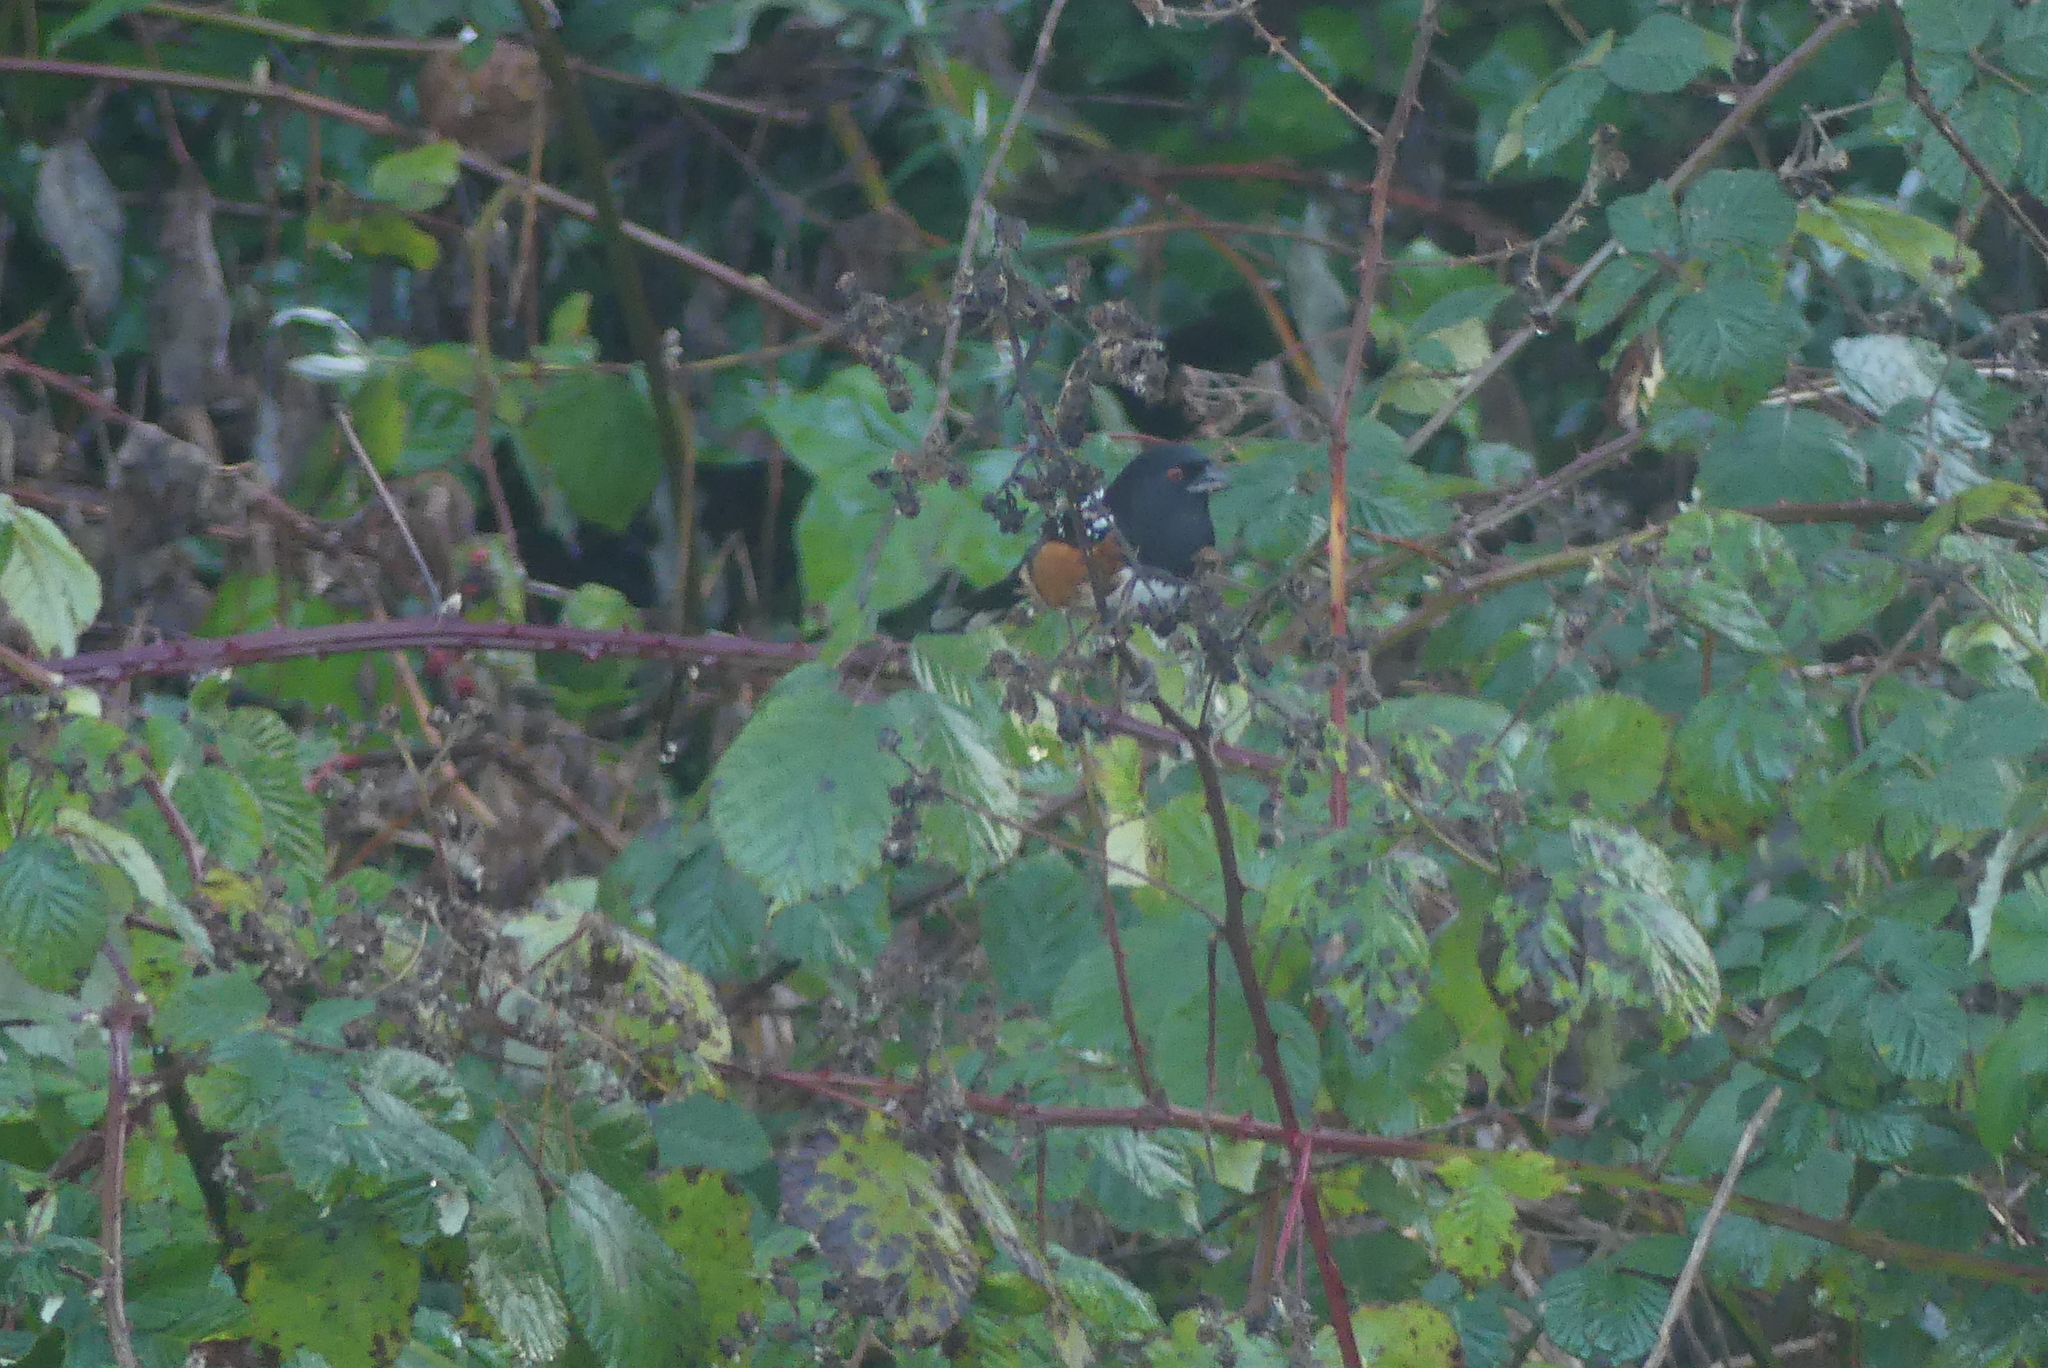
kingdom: Animalia
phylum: Chordata
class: Aves
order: Passeriformes
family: Passerellidae
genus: Pipilo
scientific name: Pipilo maculatus
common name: Spotted towhee
